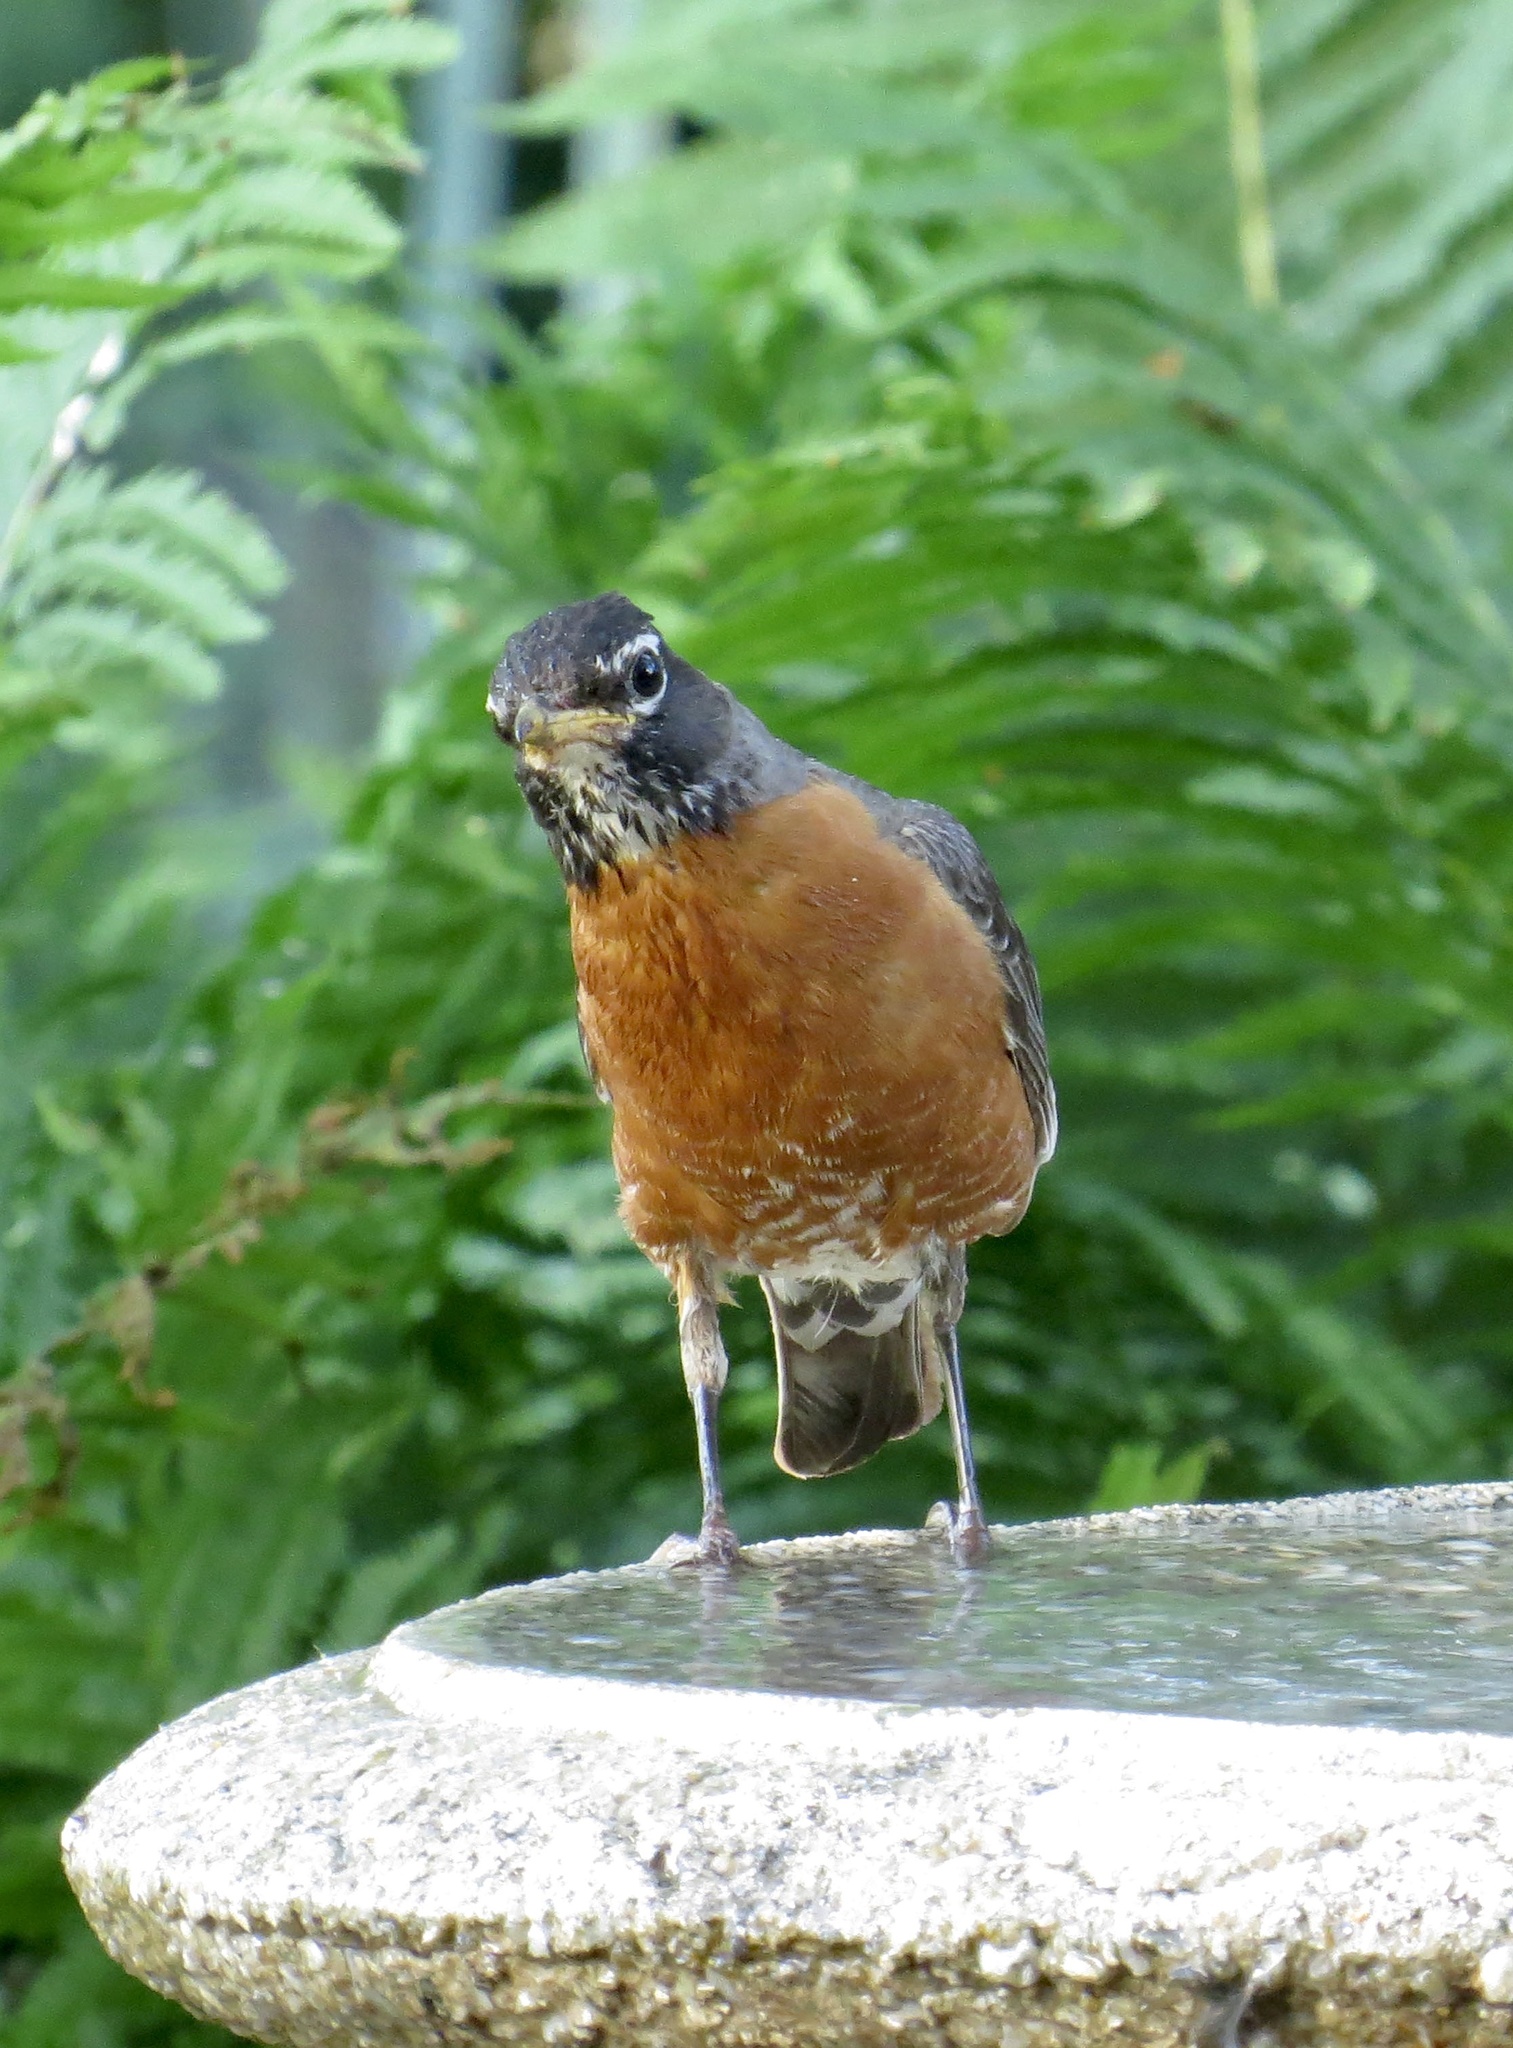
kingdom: Animalia
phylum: Chordata
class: Aves
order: Passeriformes
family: Turdidae
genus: Turdus
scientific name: Turdus migratorius
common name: American robin
